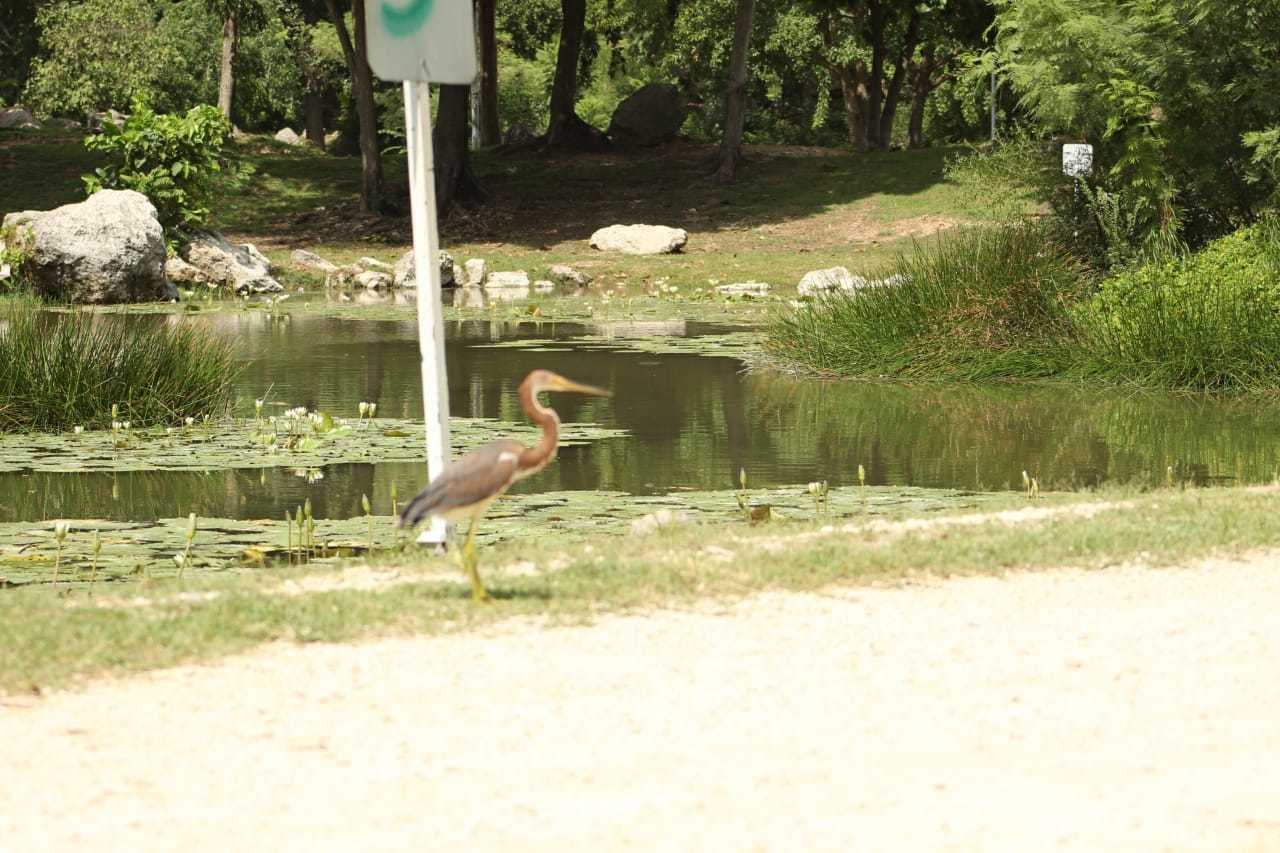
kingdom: Animalia
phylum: Chordata
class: Aves
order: Pelecaniformes
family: Ardeidae
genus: Egretta
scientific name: Egretta tricolor
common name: Tricolored heron
